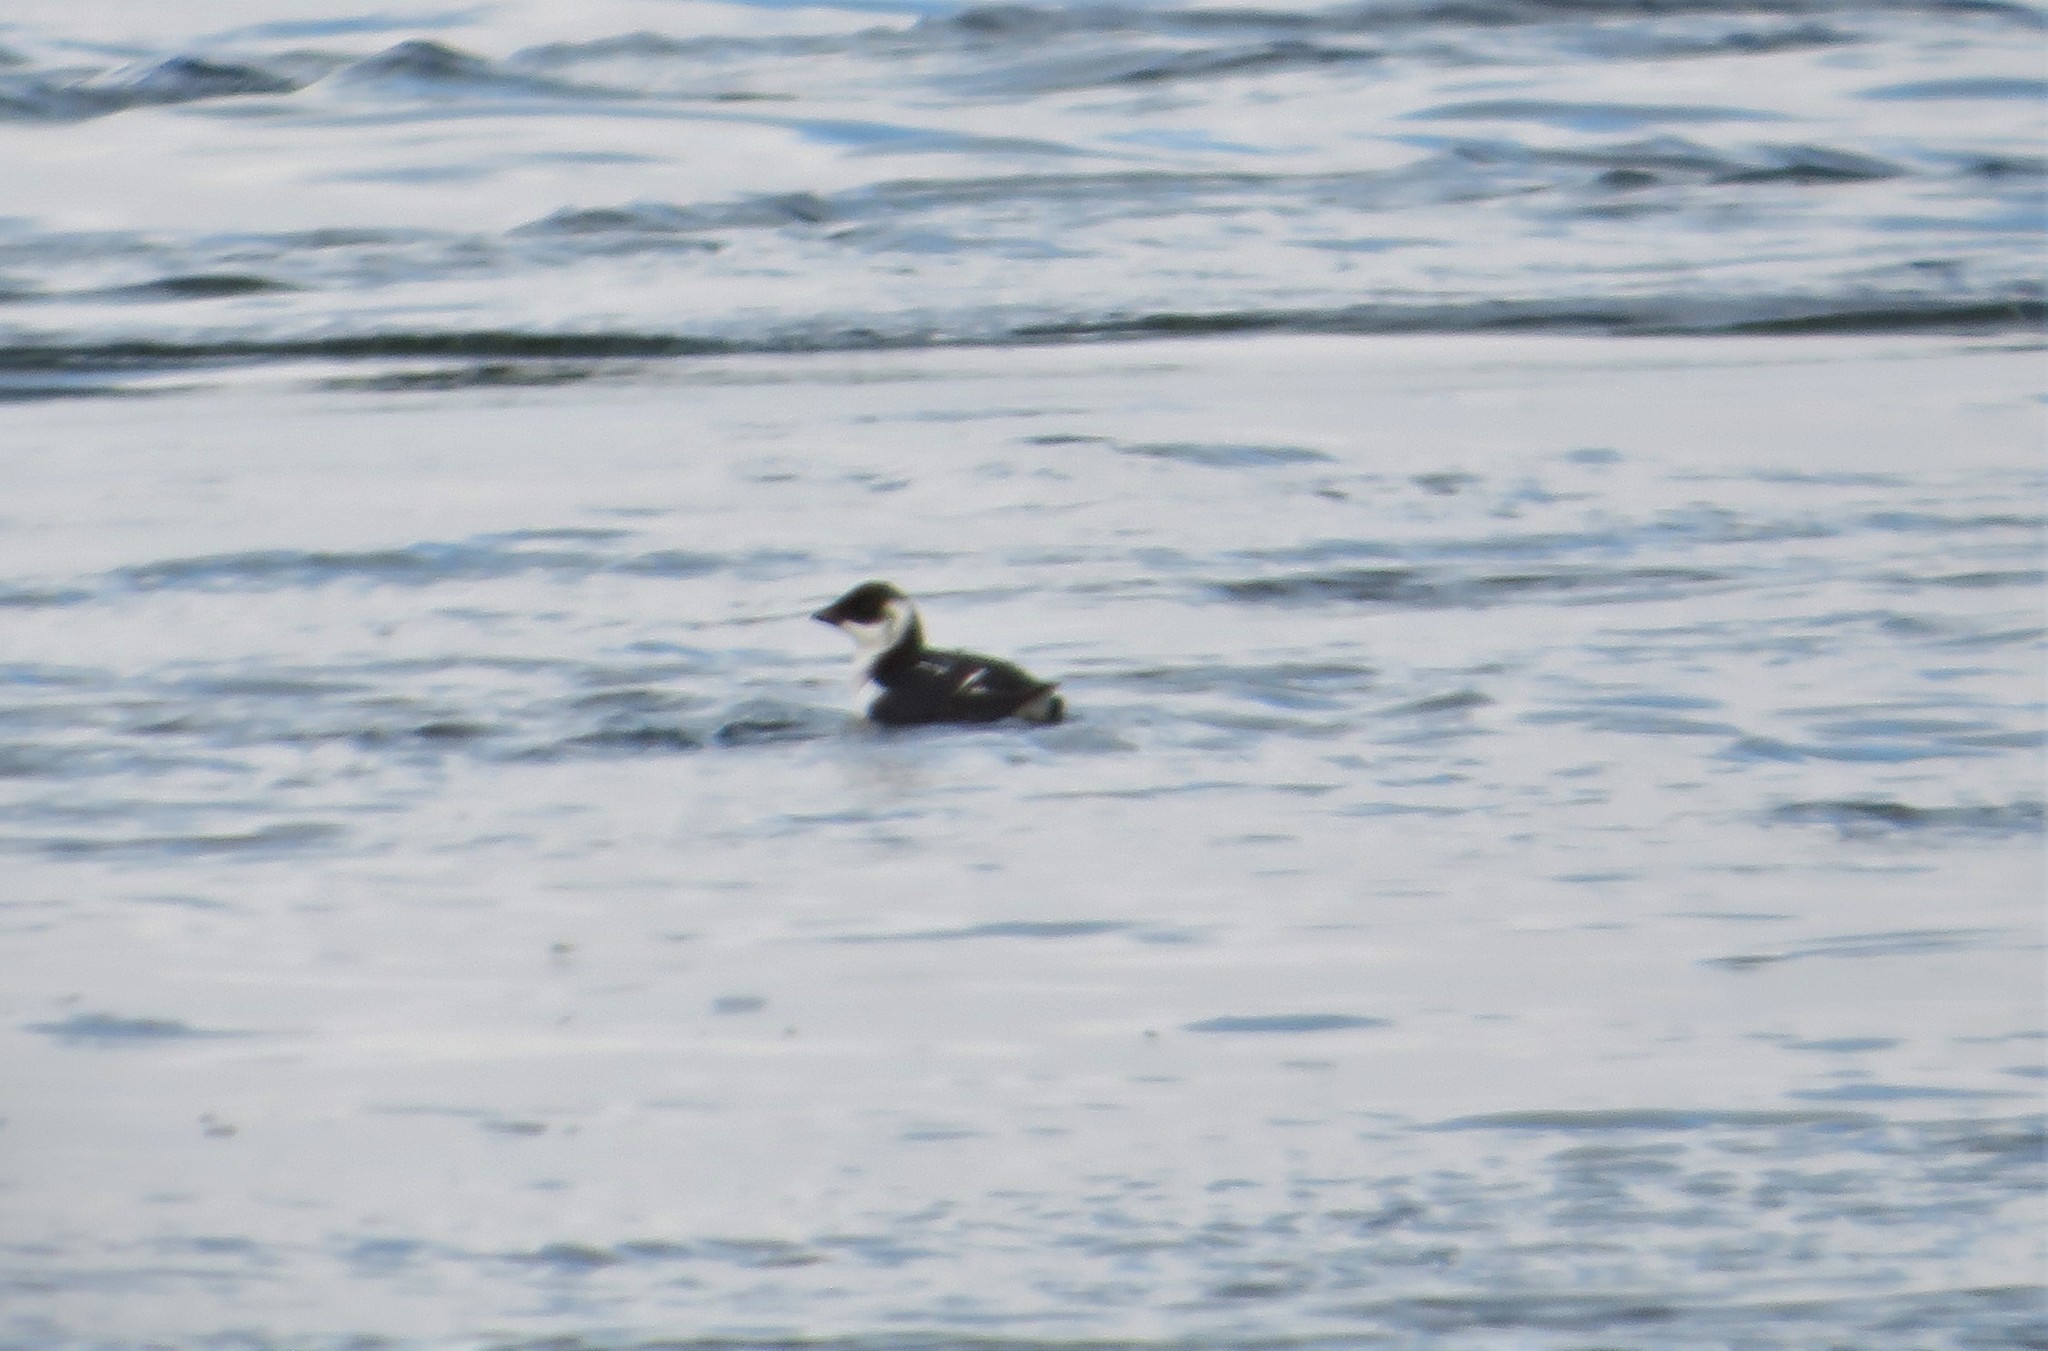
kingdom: Animalia
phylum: Chordata
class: Aves
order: Charadriiformes
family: Alcidae
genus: Alle
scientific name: Alle alle
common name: Little auk
